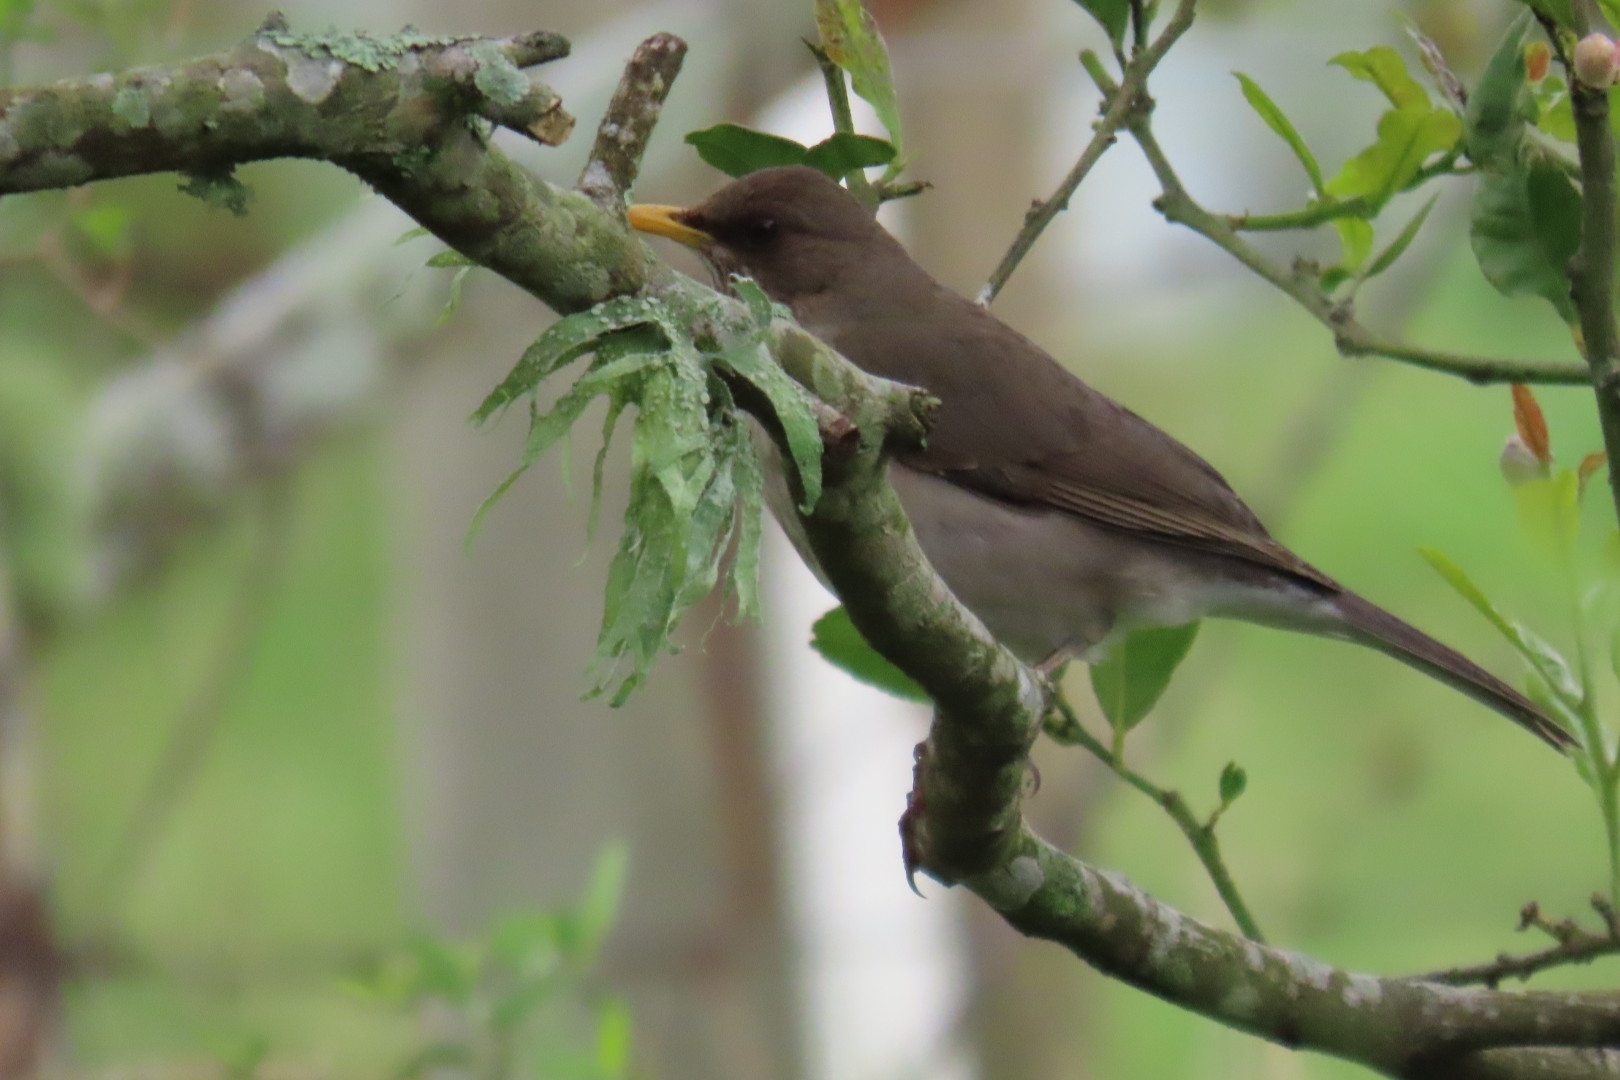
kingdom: Animalia
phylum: Chordata
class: Aves
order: Passeriformes
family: Turdidae
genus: Turdus
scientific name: Turdus amaurochalinus
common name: Creamy-bellied thrush
